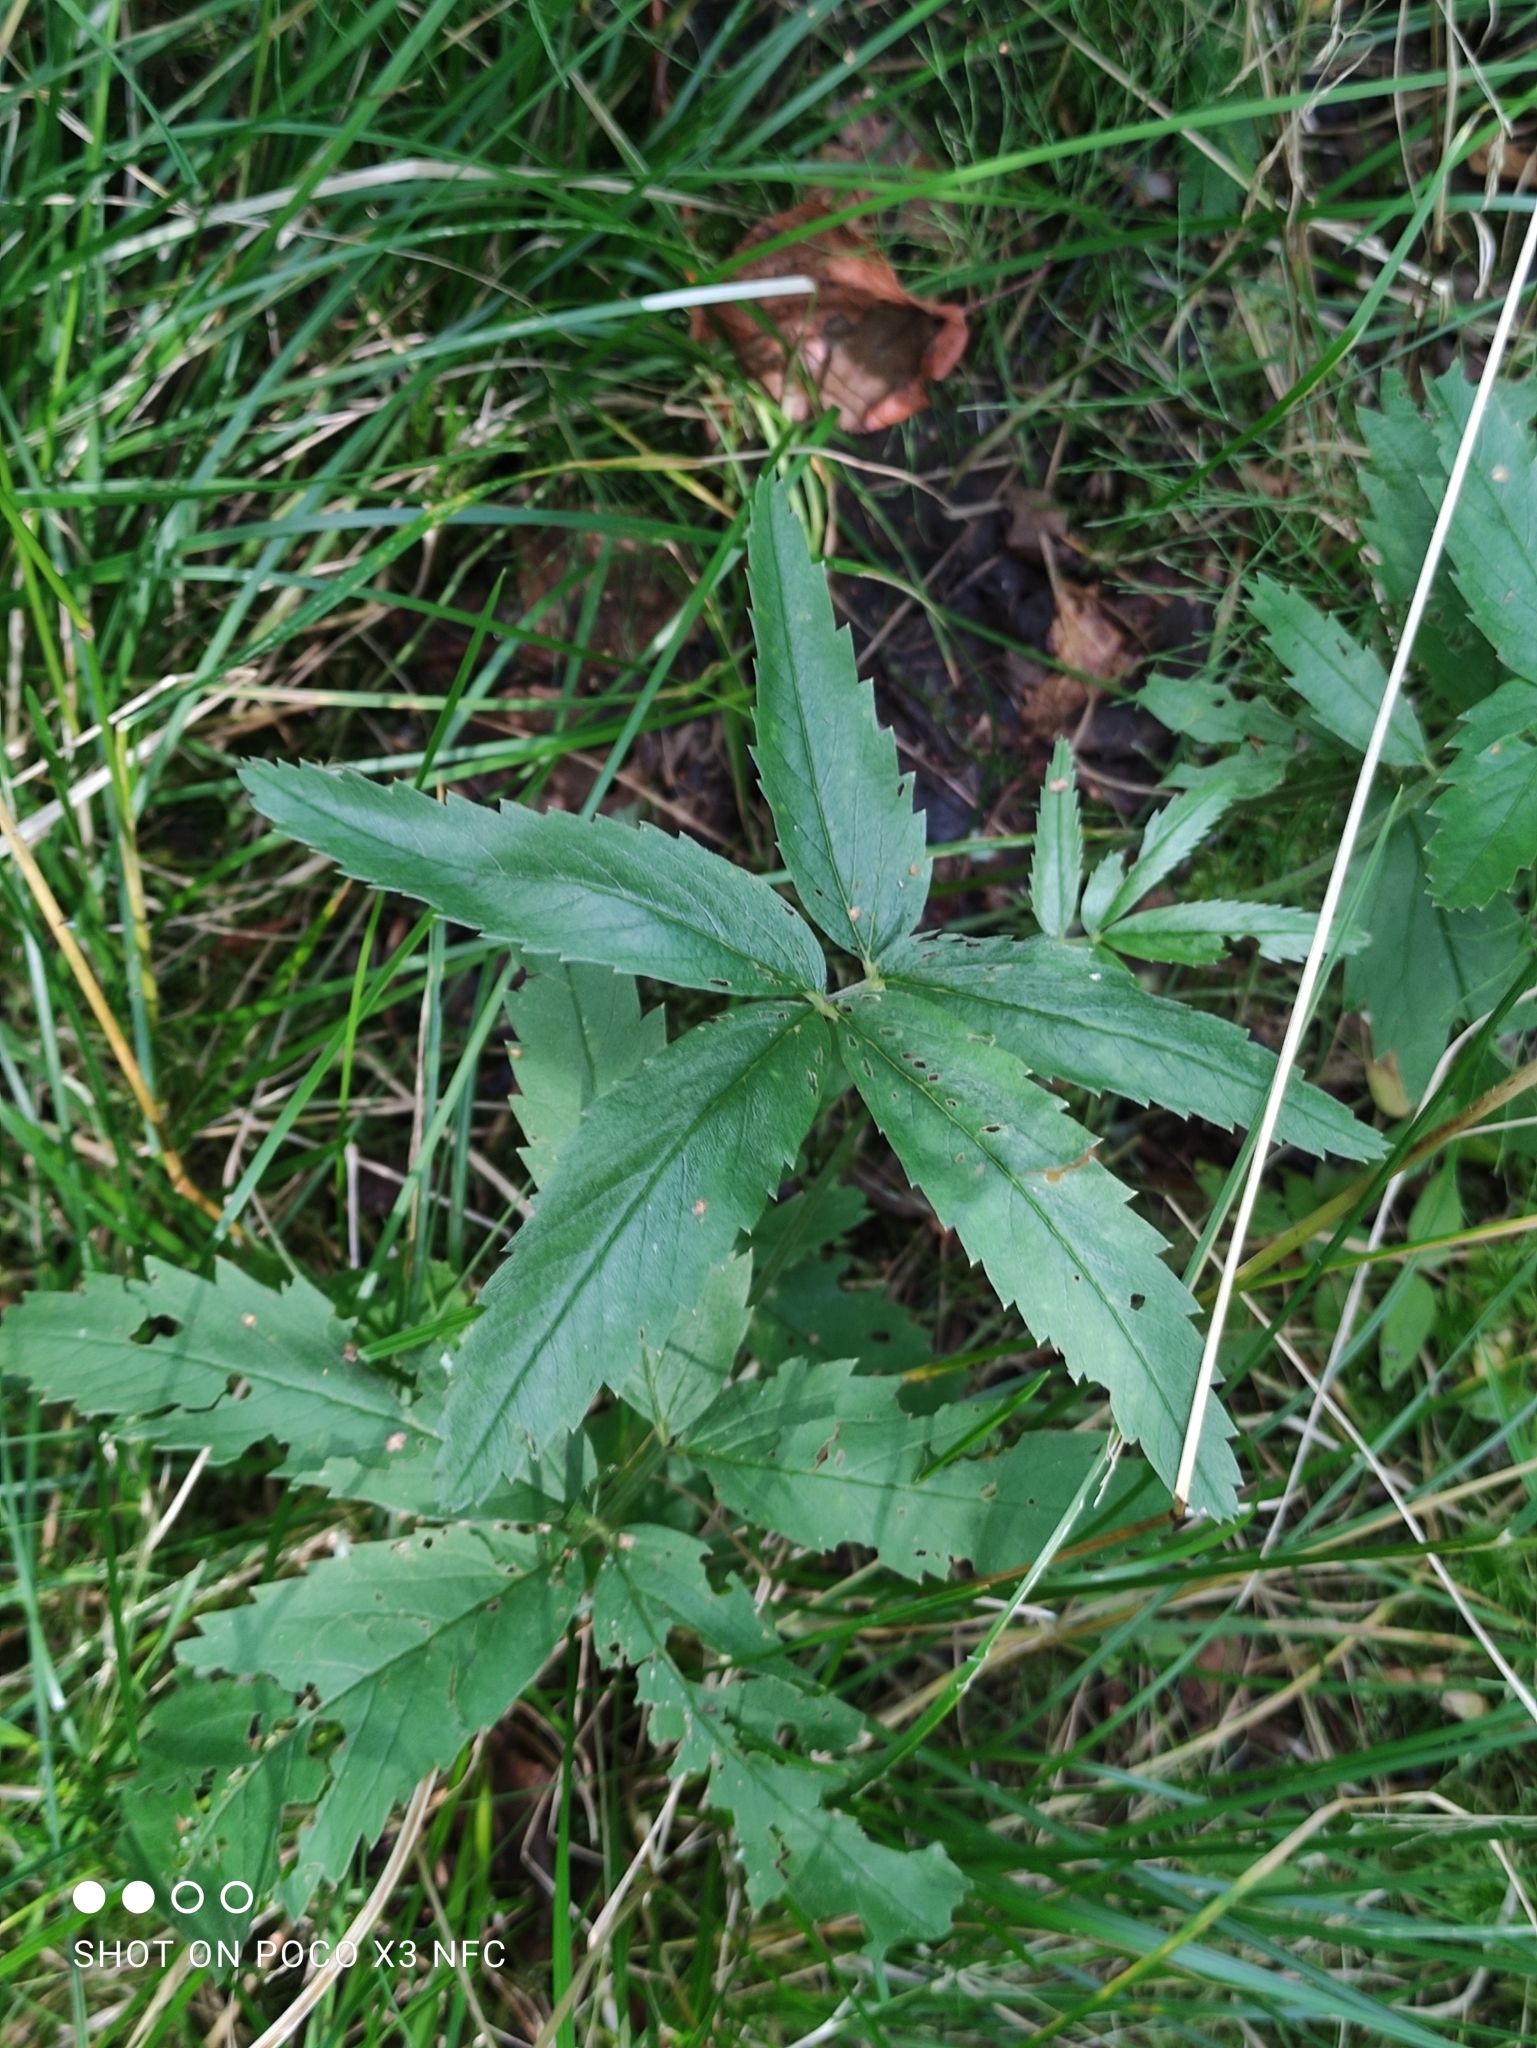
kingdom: Plantae
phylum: Tracheophyta
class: Magnoliopsida
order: Rosales
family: Rosaceae
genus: Comarum
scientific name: Comarum palustre
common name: Marsh cinquefoil
